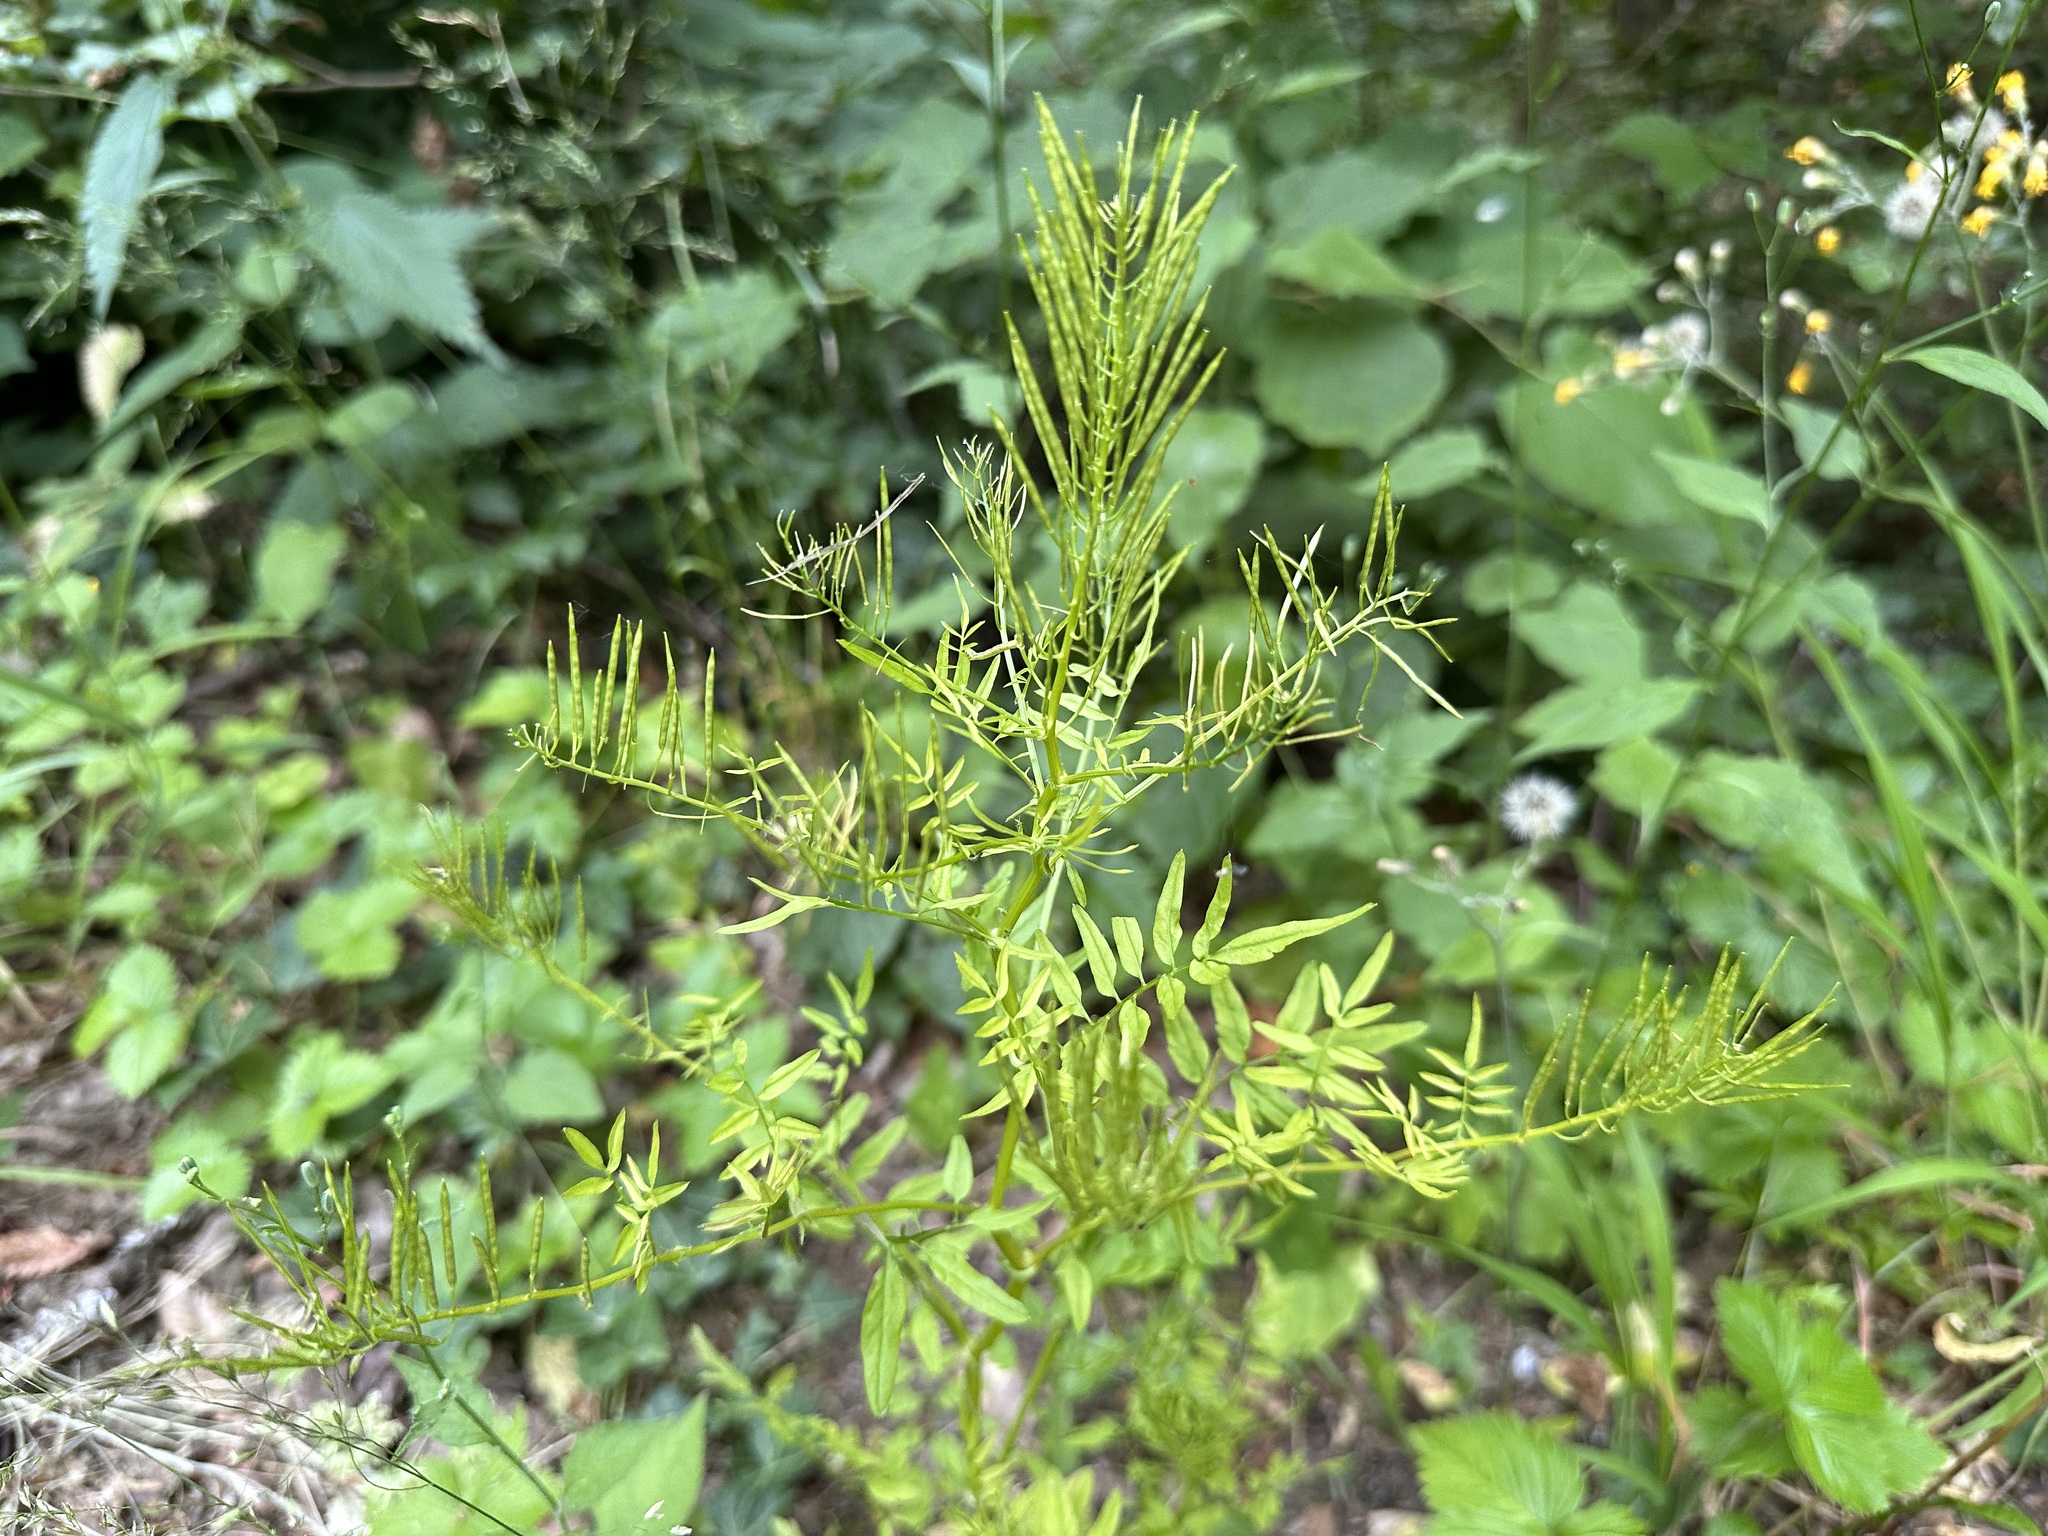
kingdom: Plantae
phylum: Tracheophyta
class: Magnoliopsida
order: Brassicales
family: Brassicaceae
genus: Cardamine
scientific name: Cardamine impatiens
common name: Narrow-leaved bitter-cress
